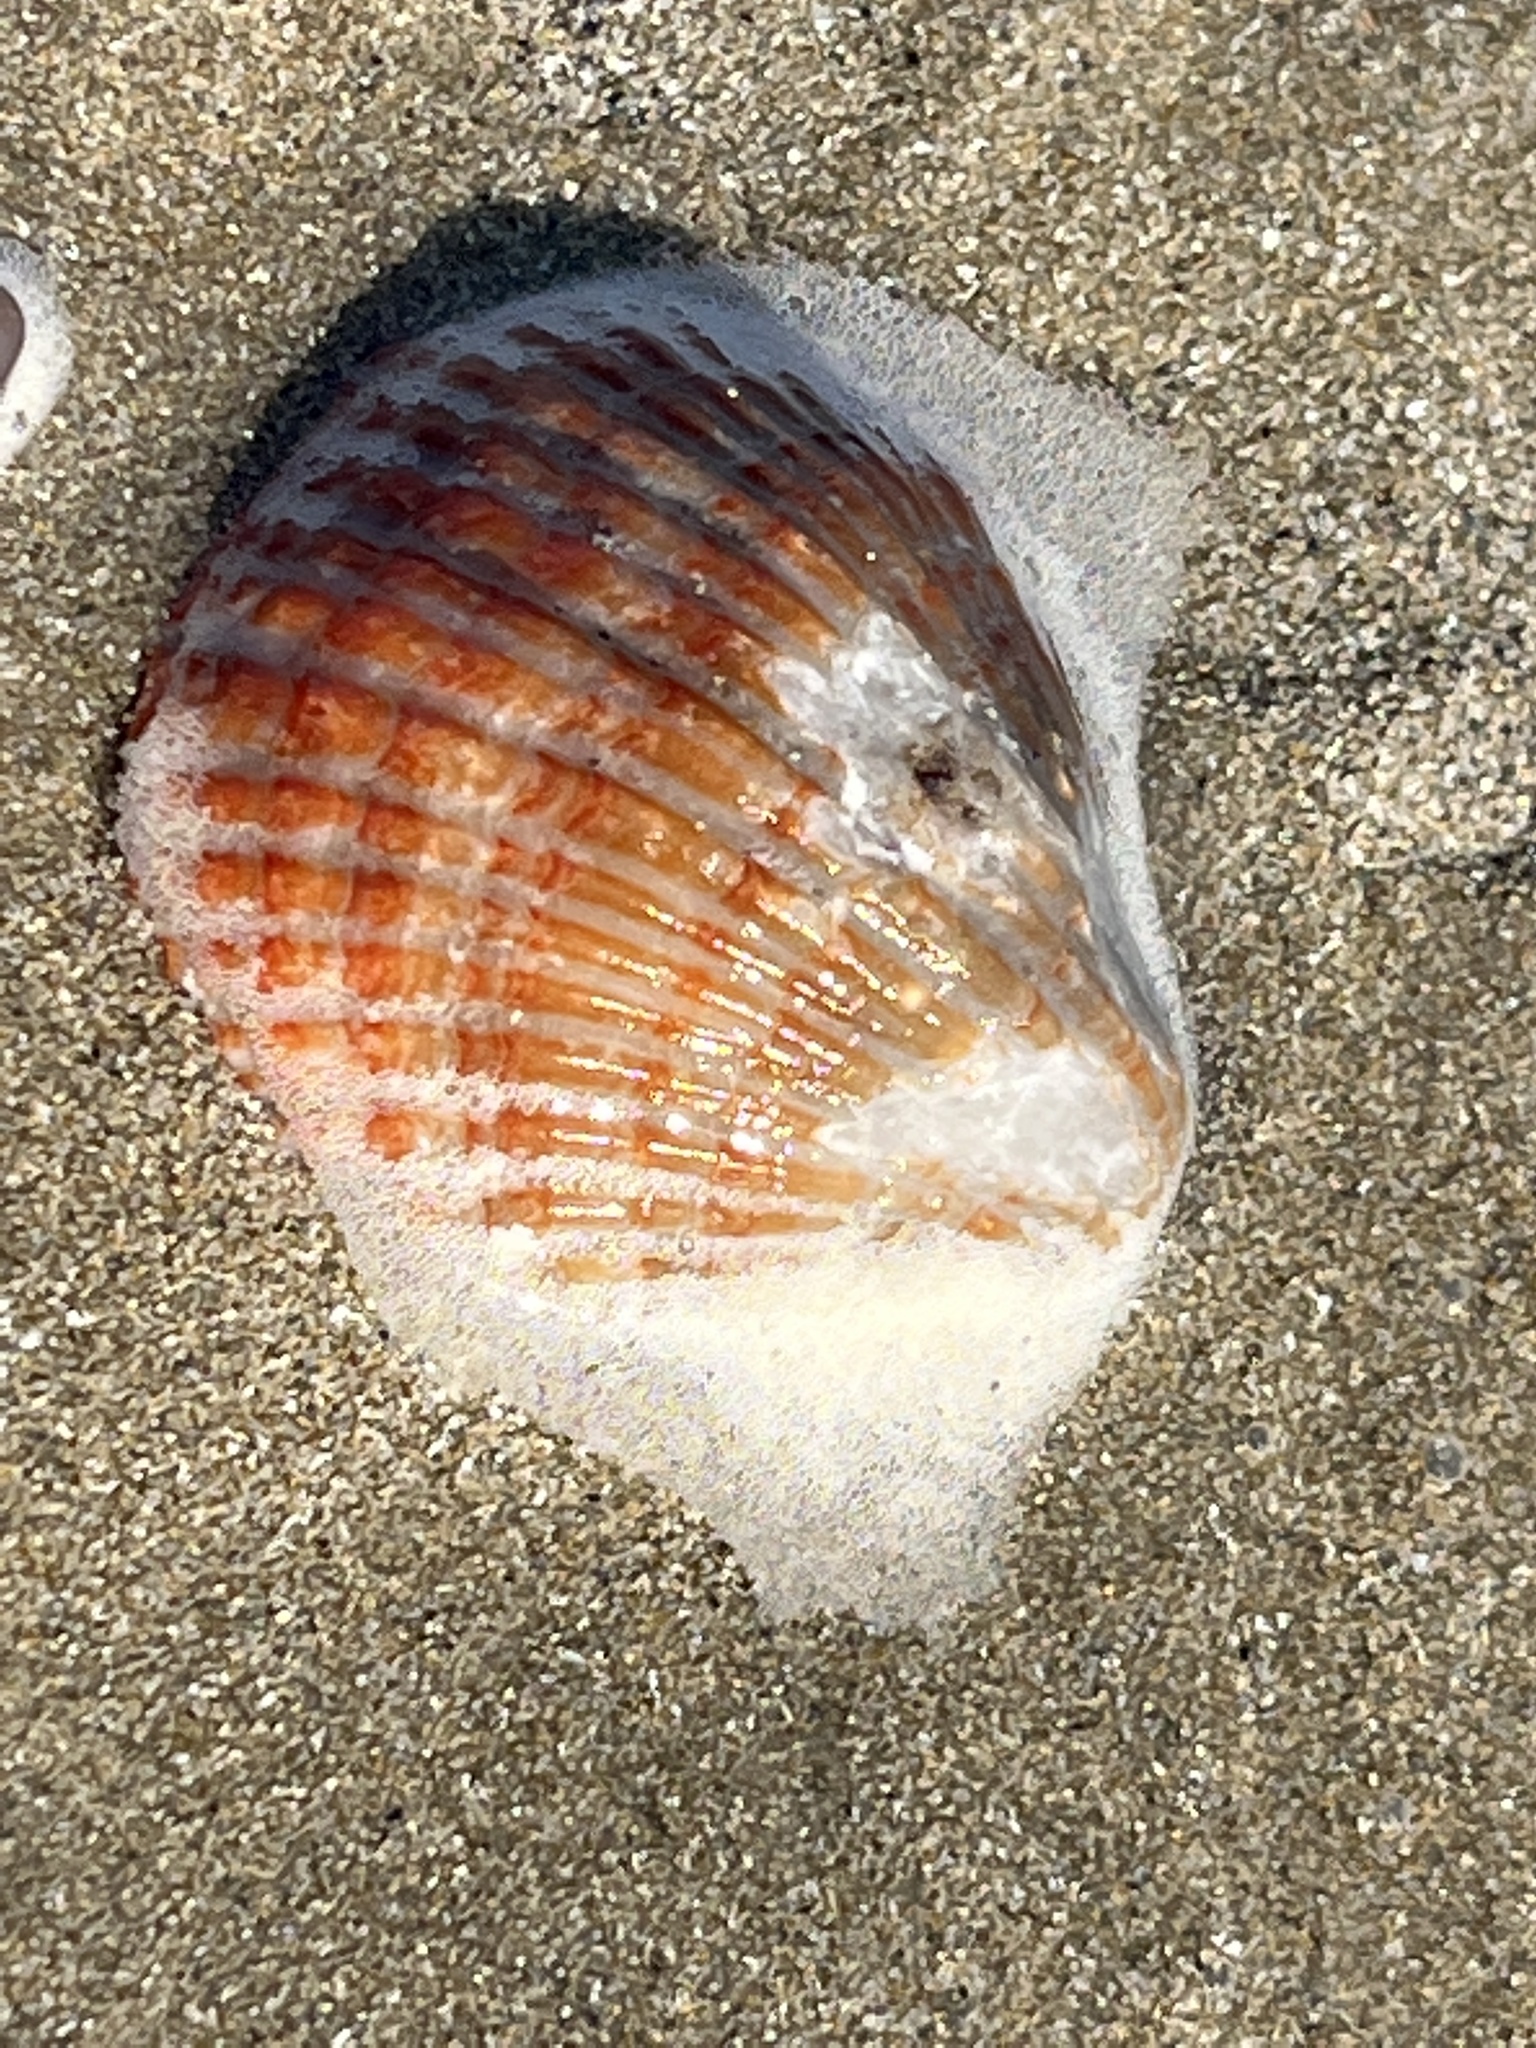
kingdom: Animalia
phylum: Brachiopoda
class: Rhynchonellata
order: Terebratulida
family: Terebrataliidae
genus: Coptothyris
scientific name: Coptothyris grayi
